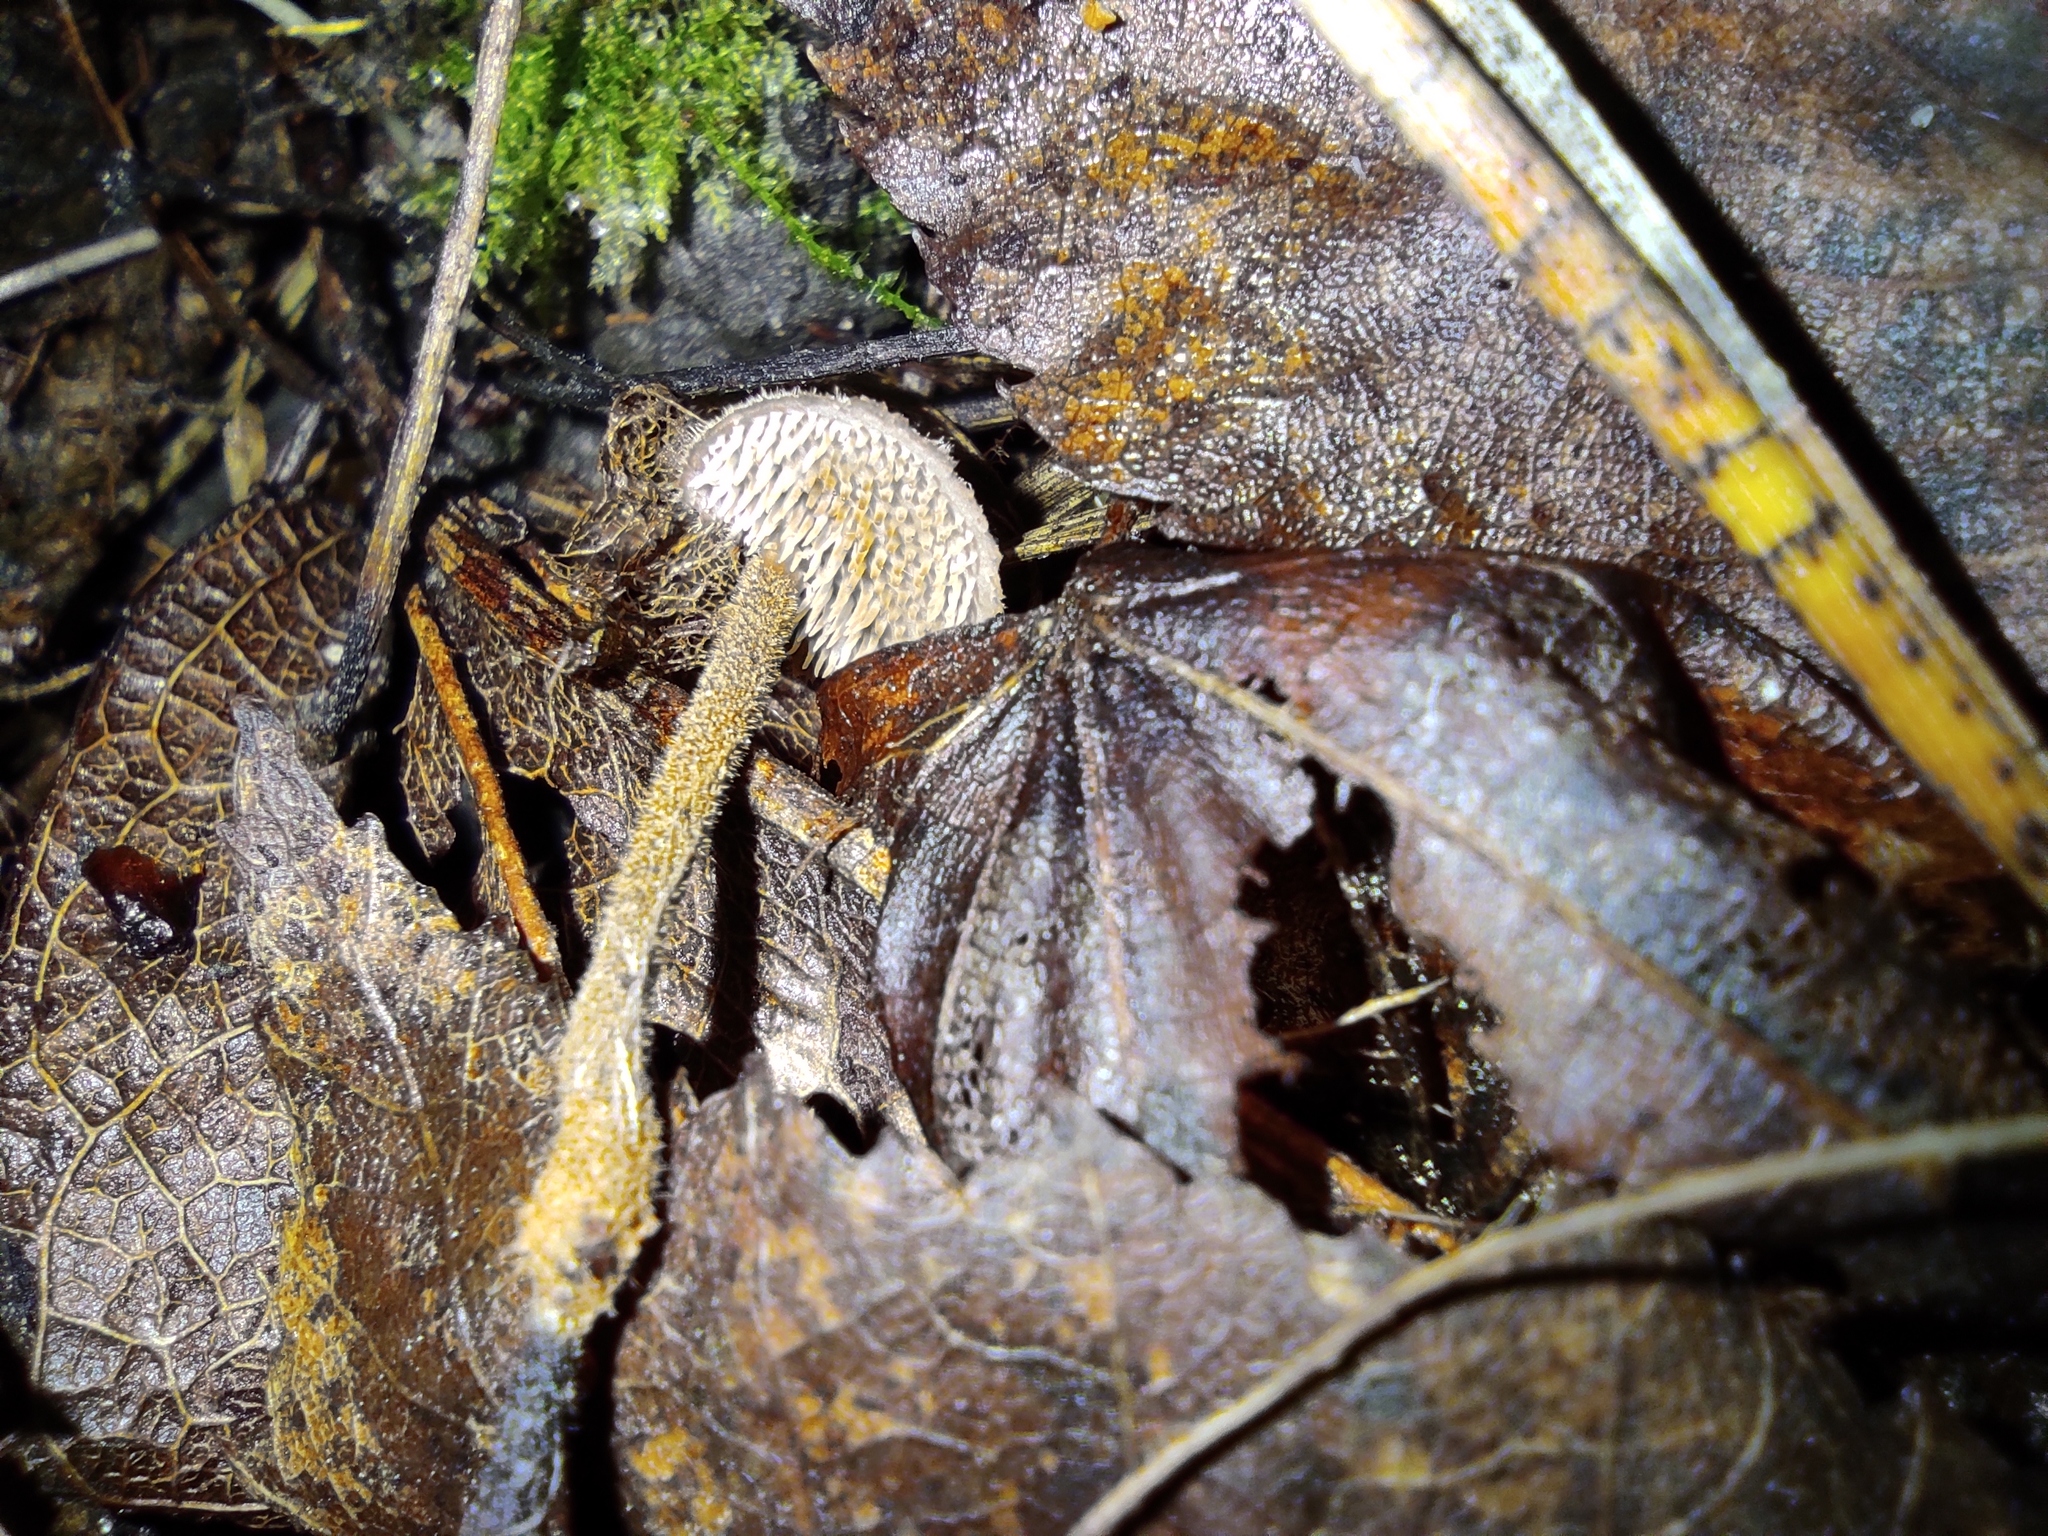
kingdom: Fungi
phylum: Basidiomycota
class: Agaricomycetes
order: Russulales
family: Auriscalpiaceae
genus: Auriscalpium
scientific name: Auriscalpium vulgare
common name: Earpick fungus
